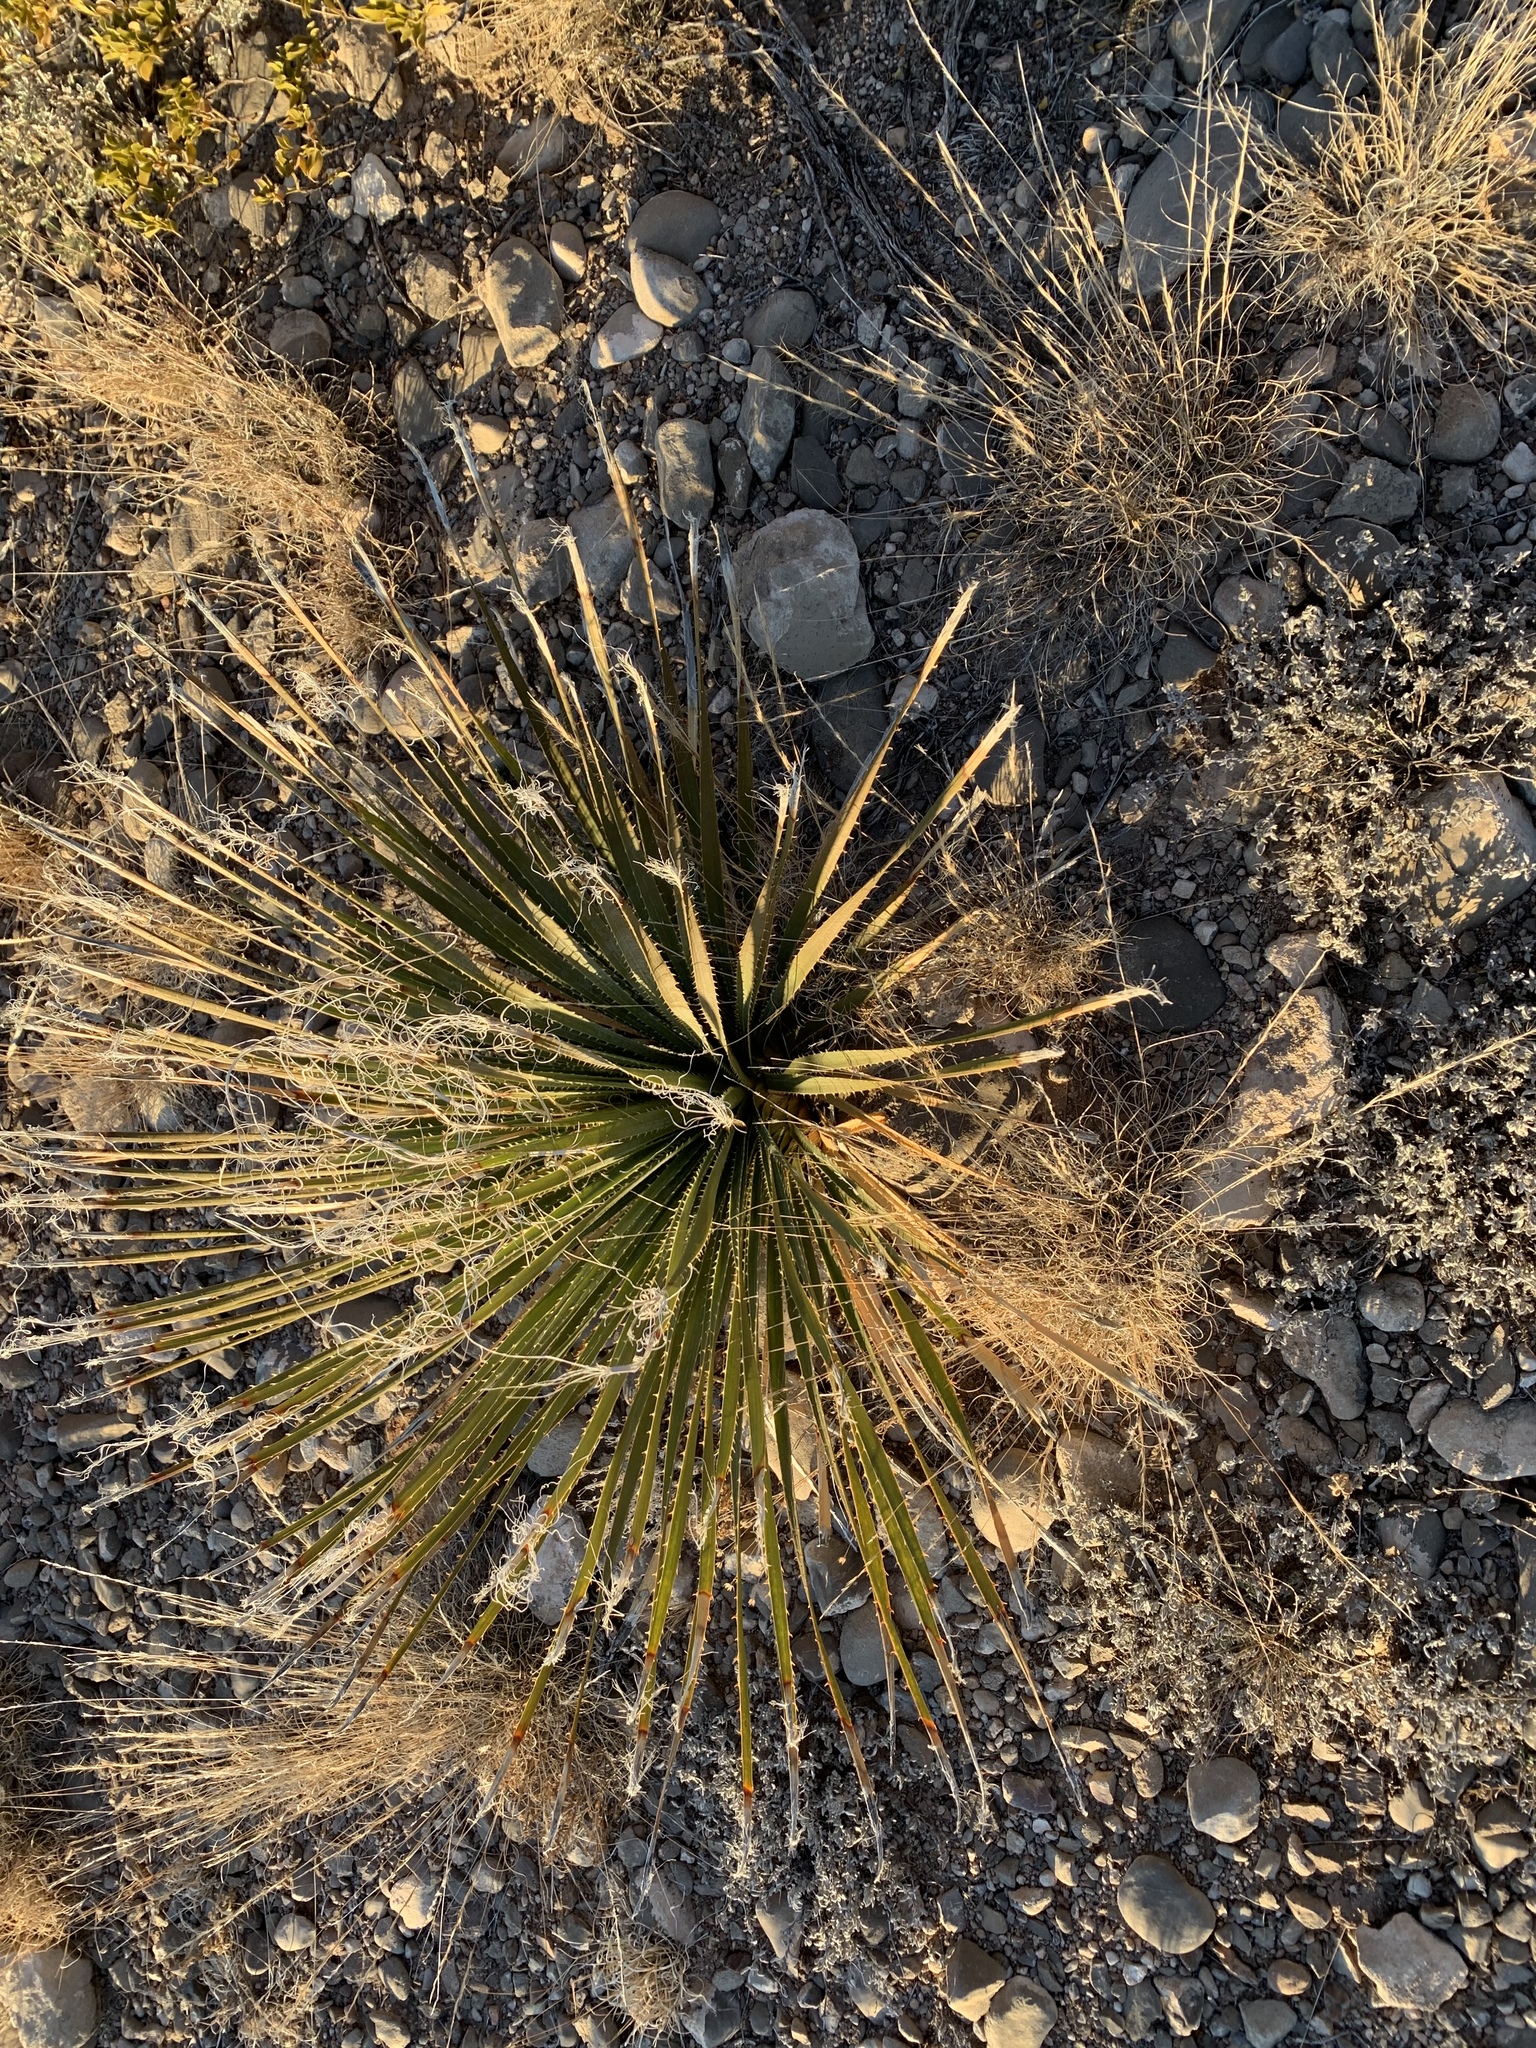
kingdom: Plantae
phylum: Tracheophyta
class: Liliopsida
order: Asparagales
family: Asparagaceae
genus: Dasylirion
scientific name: Dasylirion wheeleri
